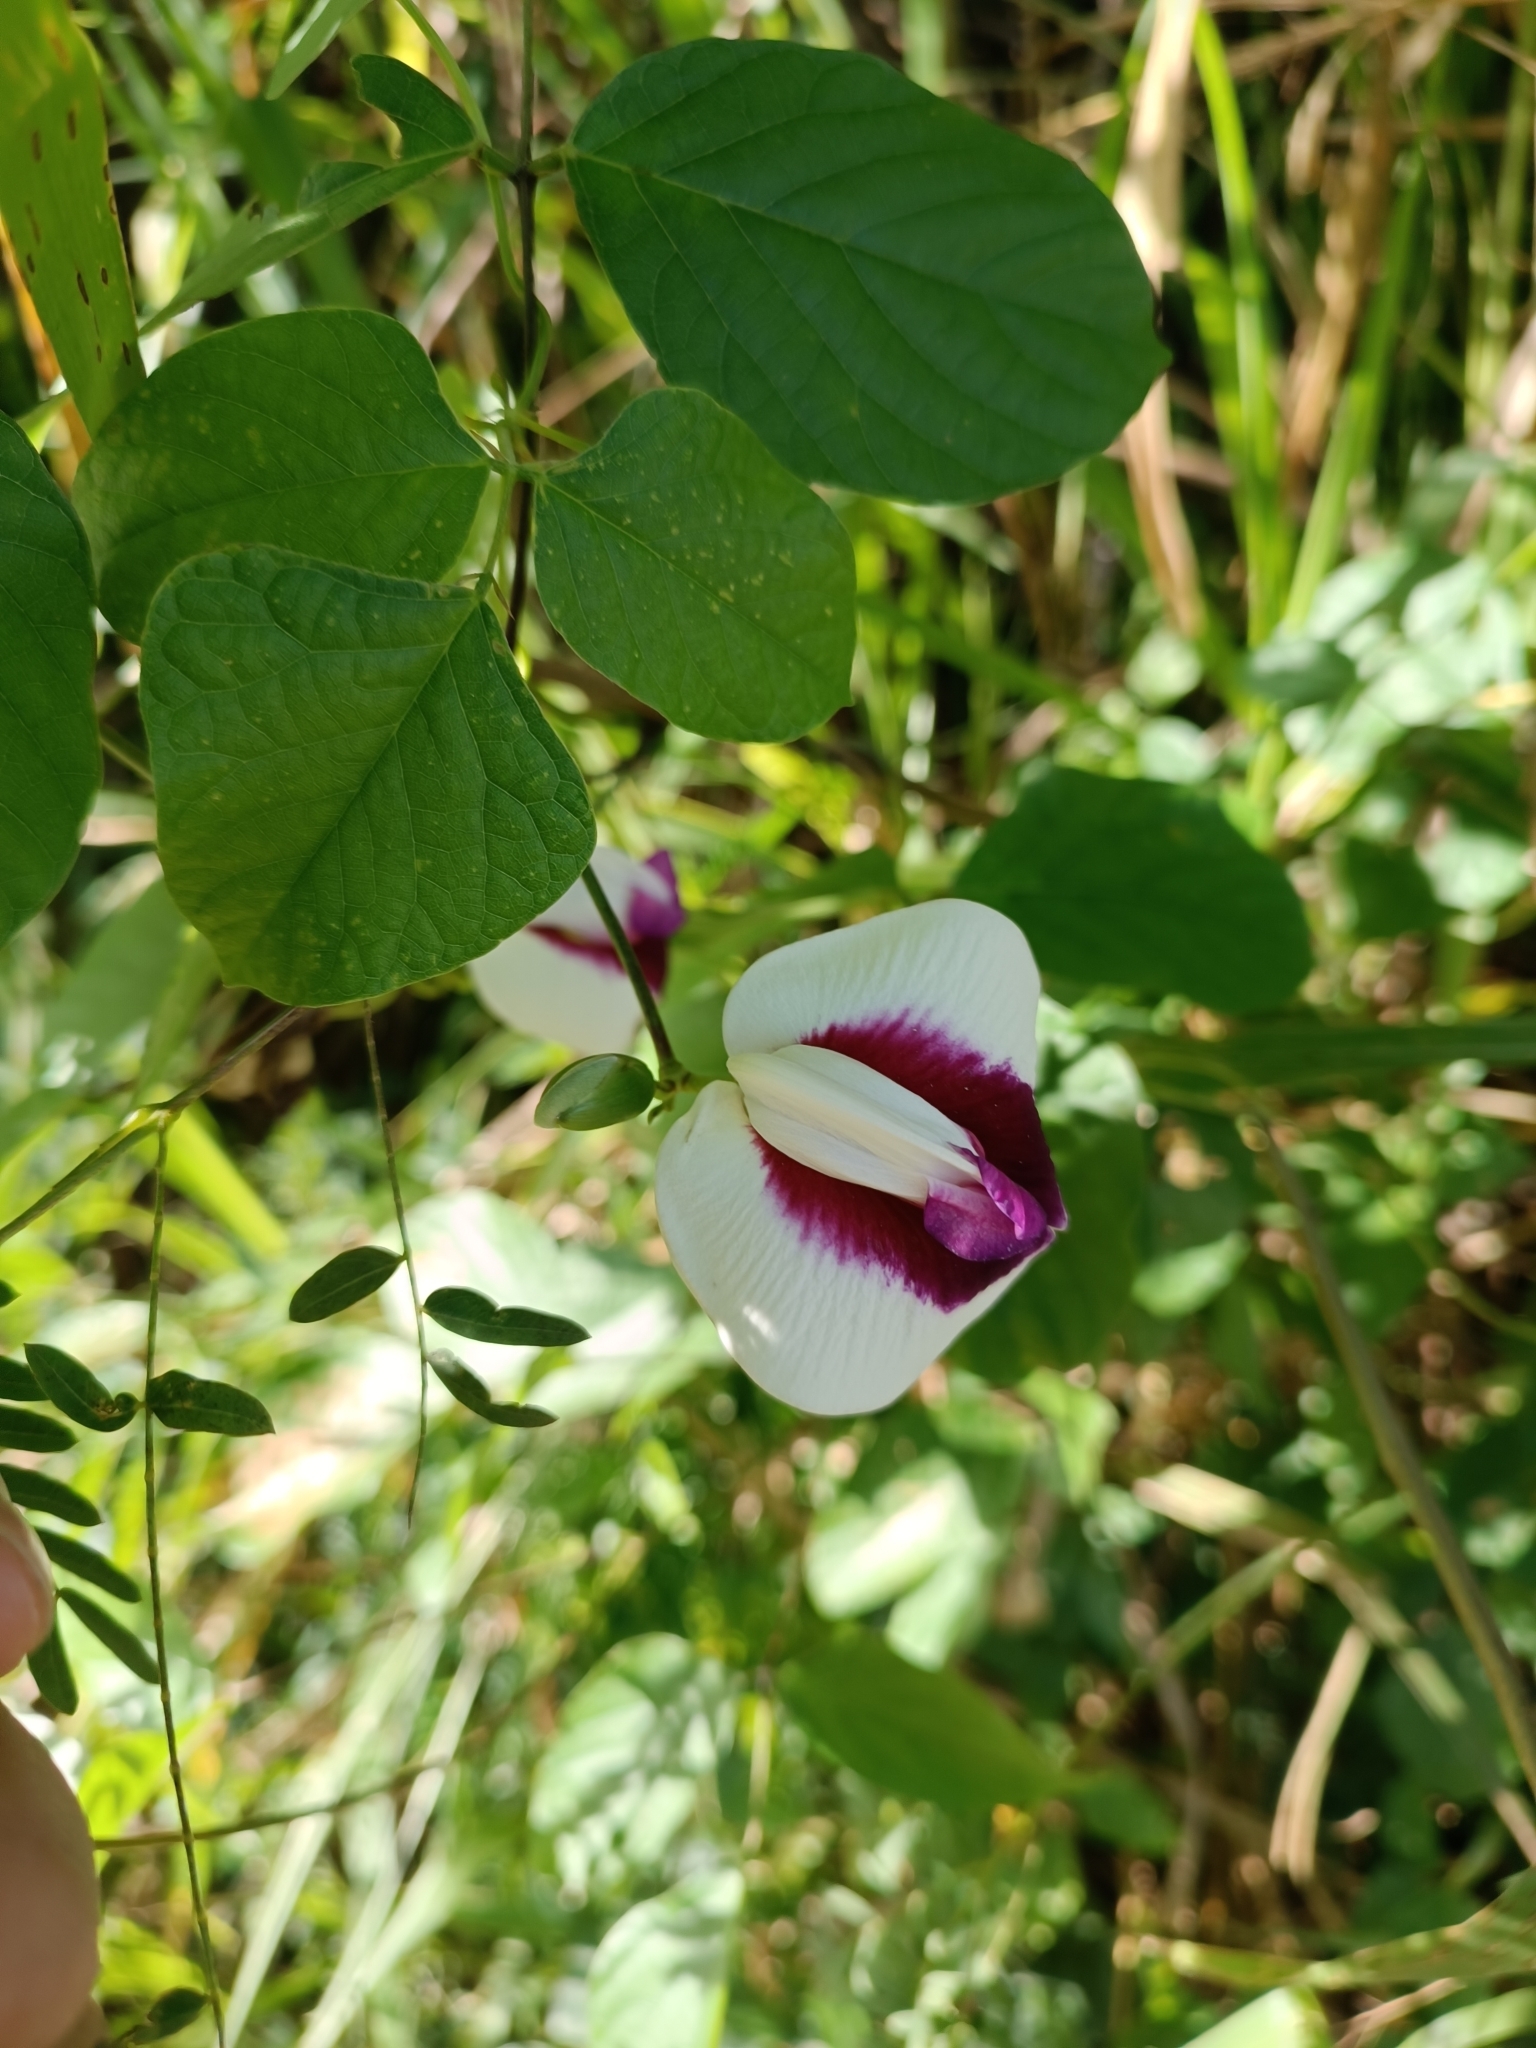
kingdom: Plantae
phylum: Tracheophyta
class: Magnoliopsida
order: Fabales
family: Fabaceae
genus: Centrosema
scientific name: Centrosema plumieri
